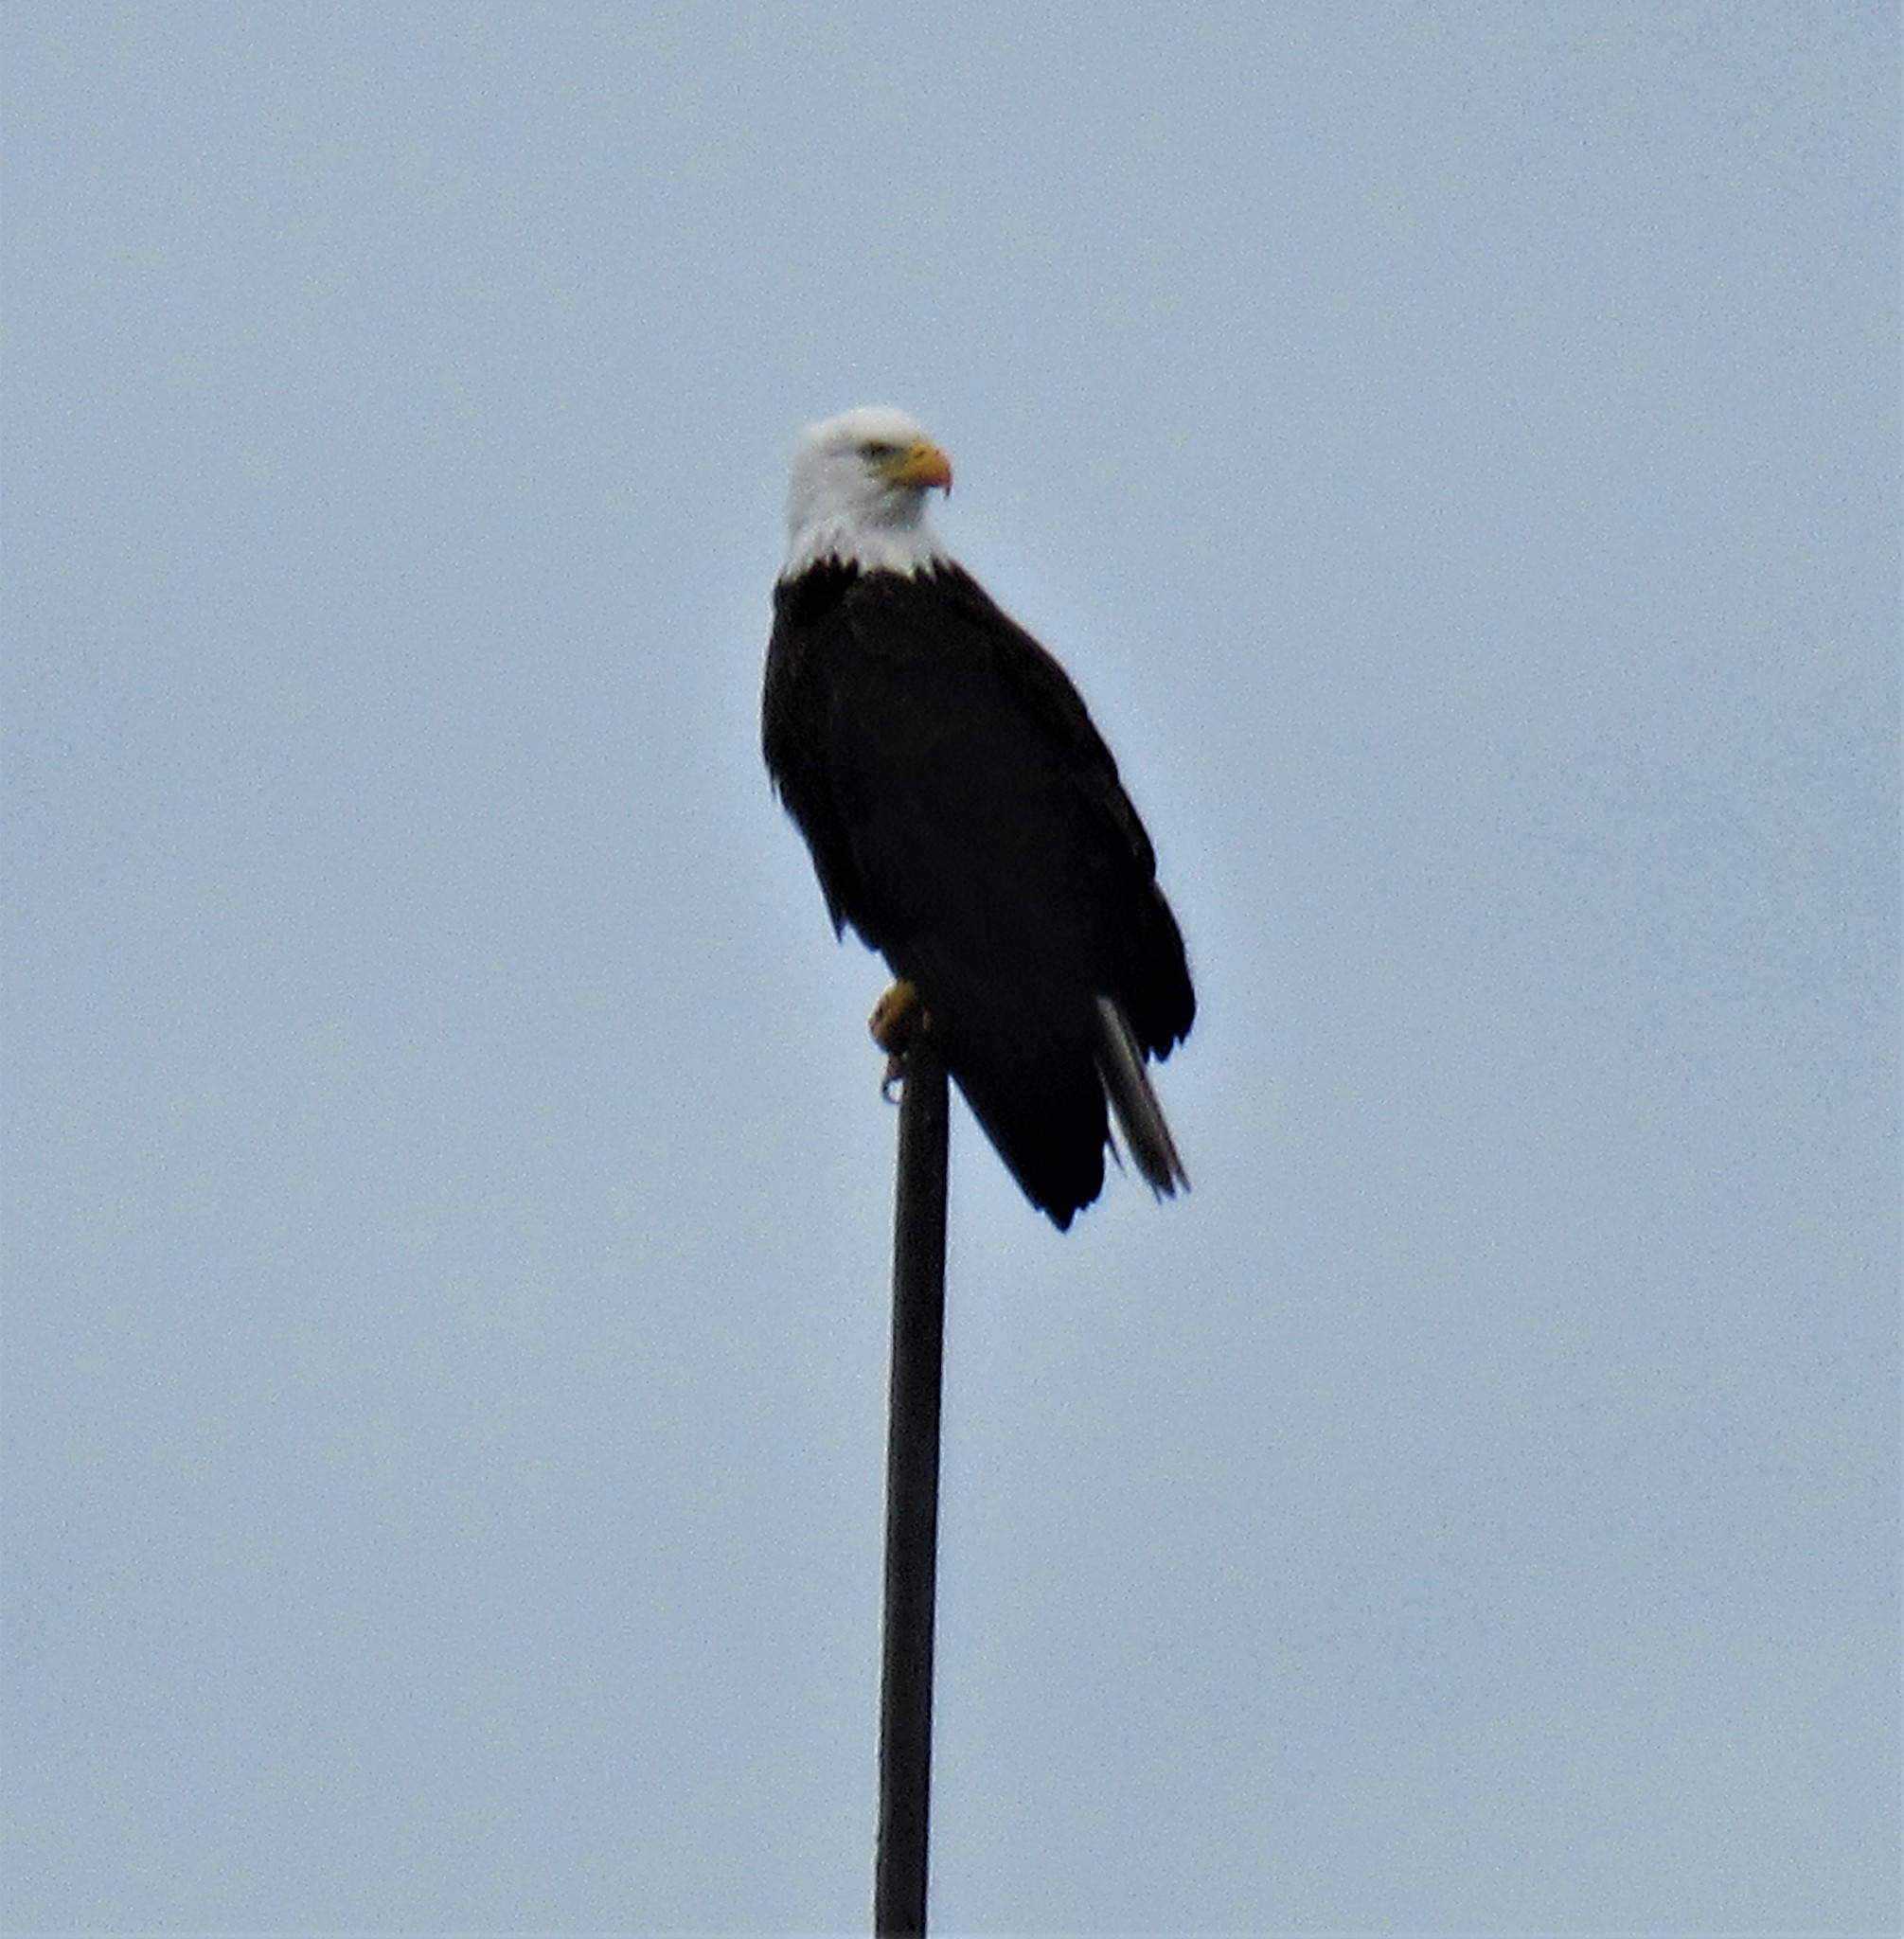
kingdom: Animalia
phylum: Chordata
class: Aves
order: Accipitriformes
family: Accipitridae
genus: Haliaeetus
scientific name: Haliaeetus leucocephalus
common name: Bald eagle
